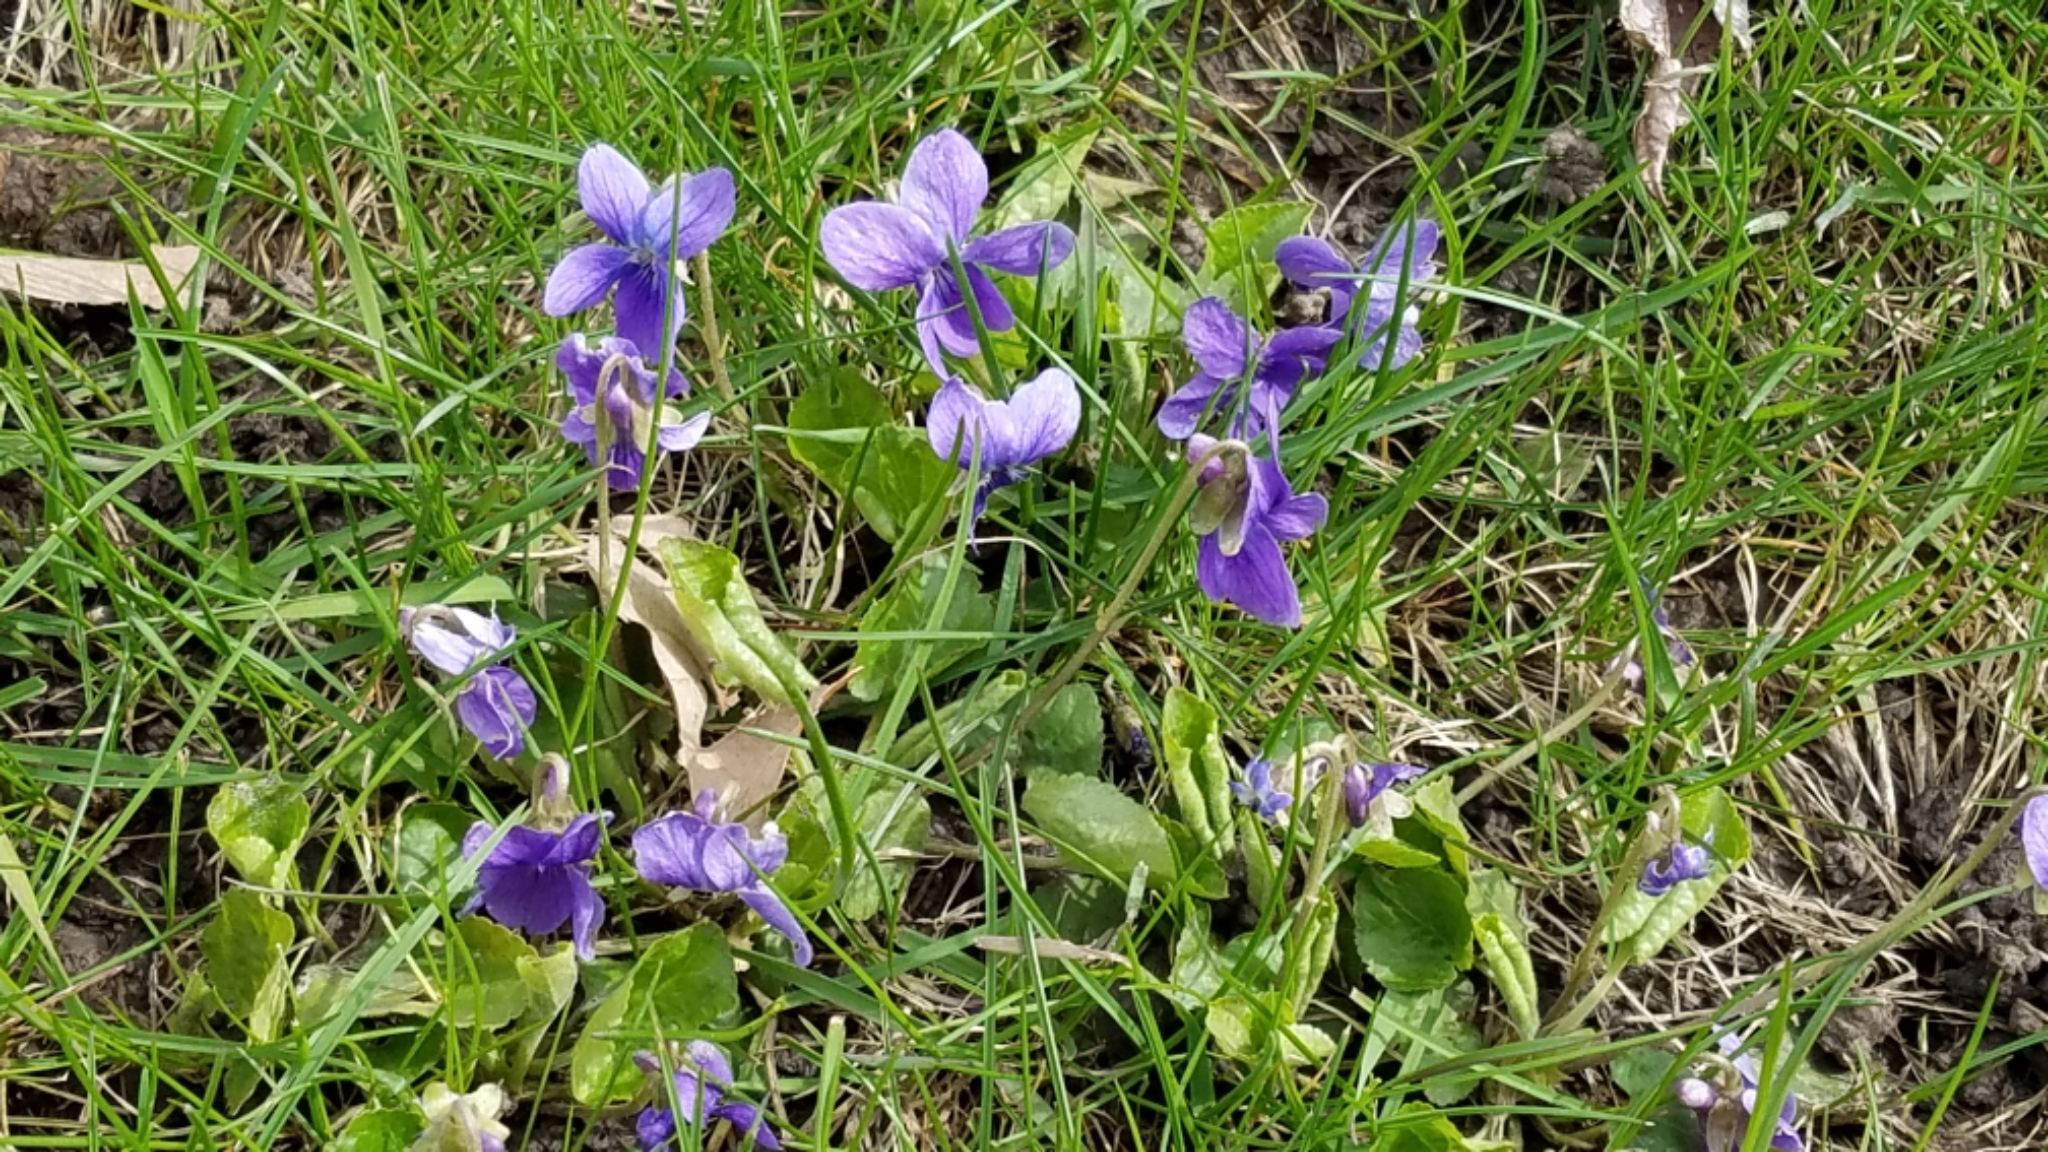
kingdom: Plantae
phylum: Tracheophyta
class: Magnoliopsida
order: Malpighiales
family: Violaceae
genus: Viola
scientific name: Viola odorata
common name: Sweet violet
